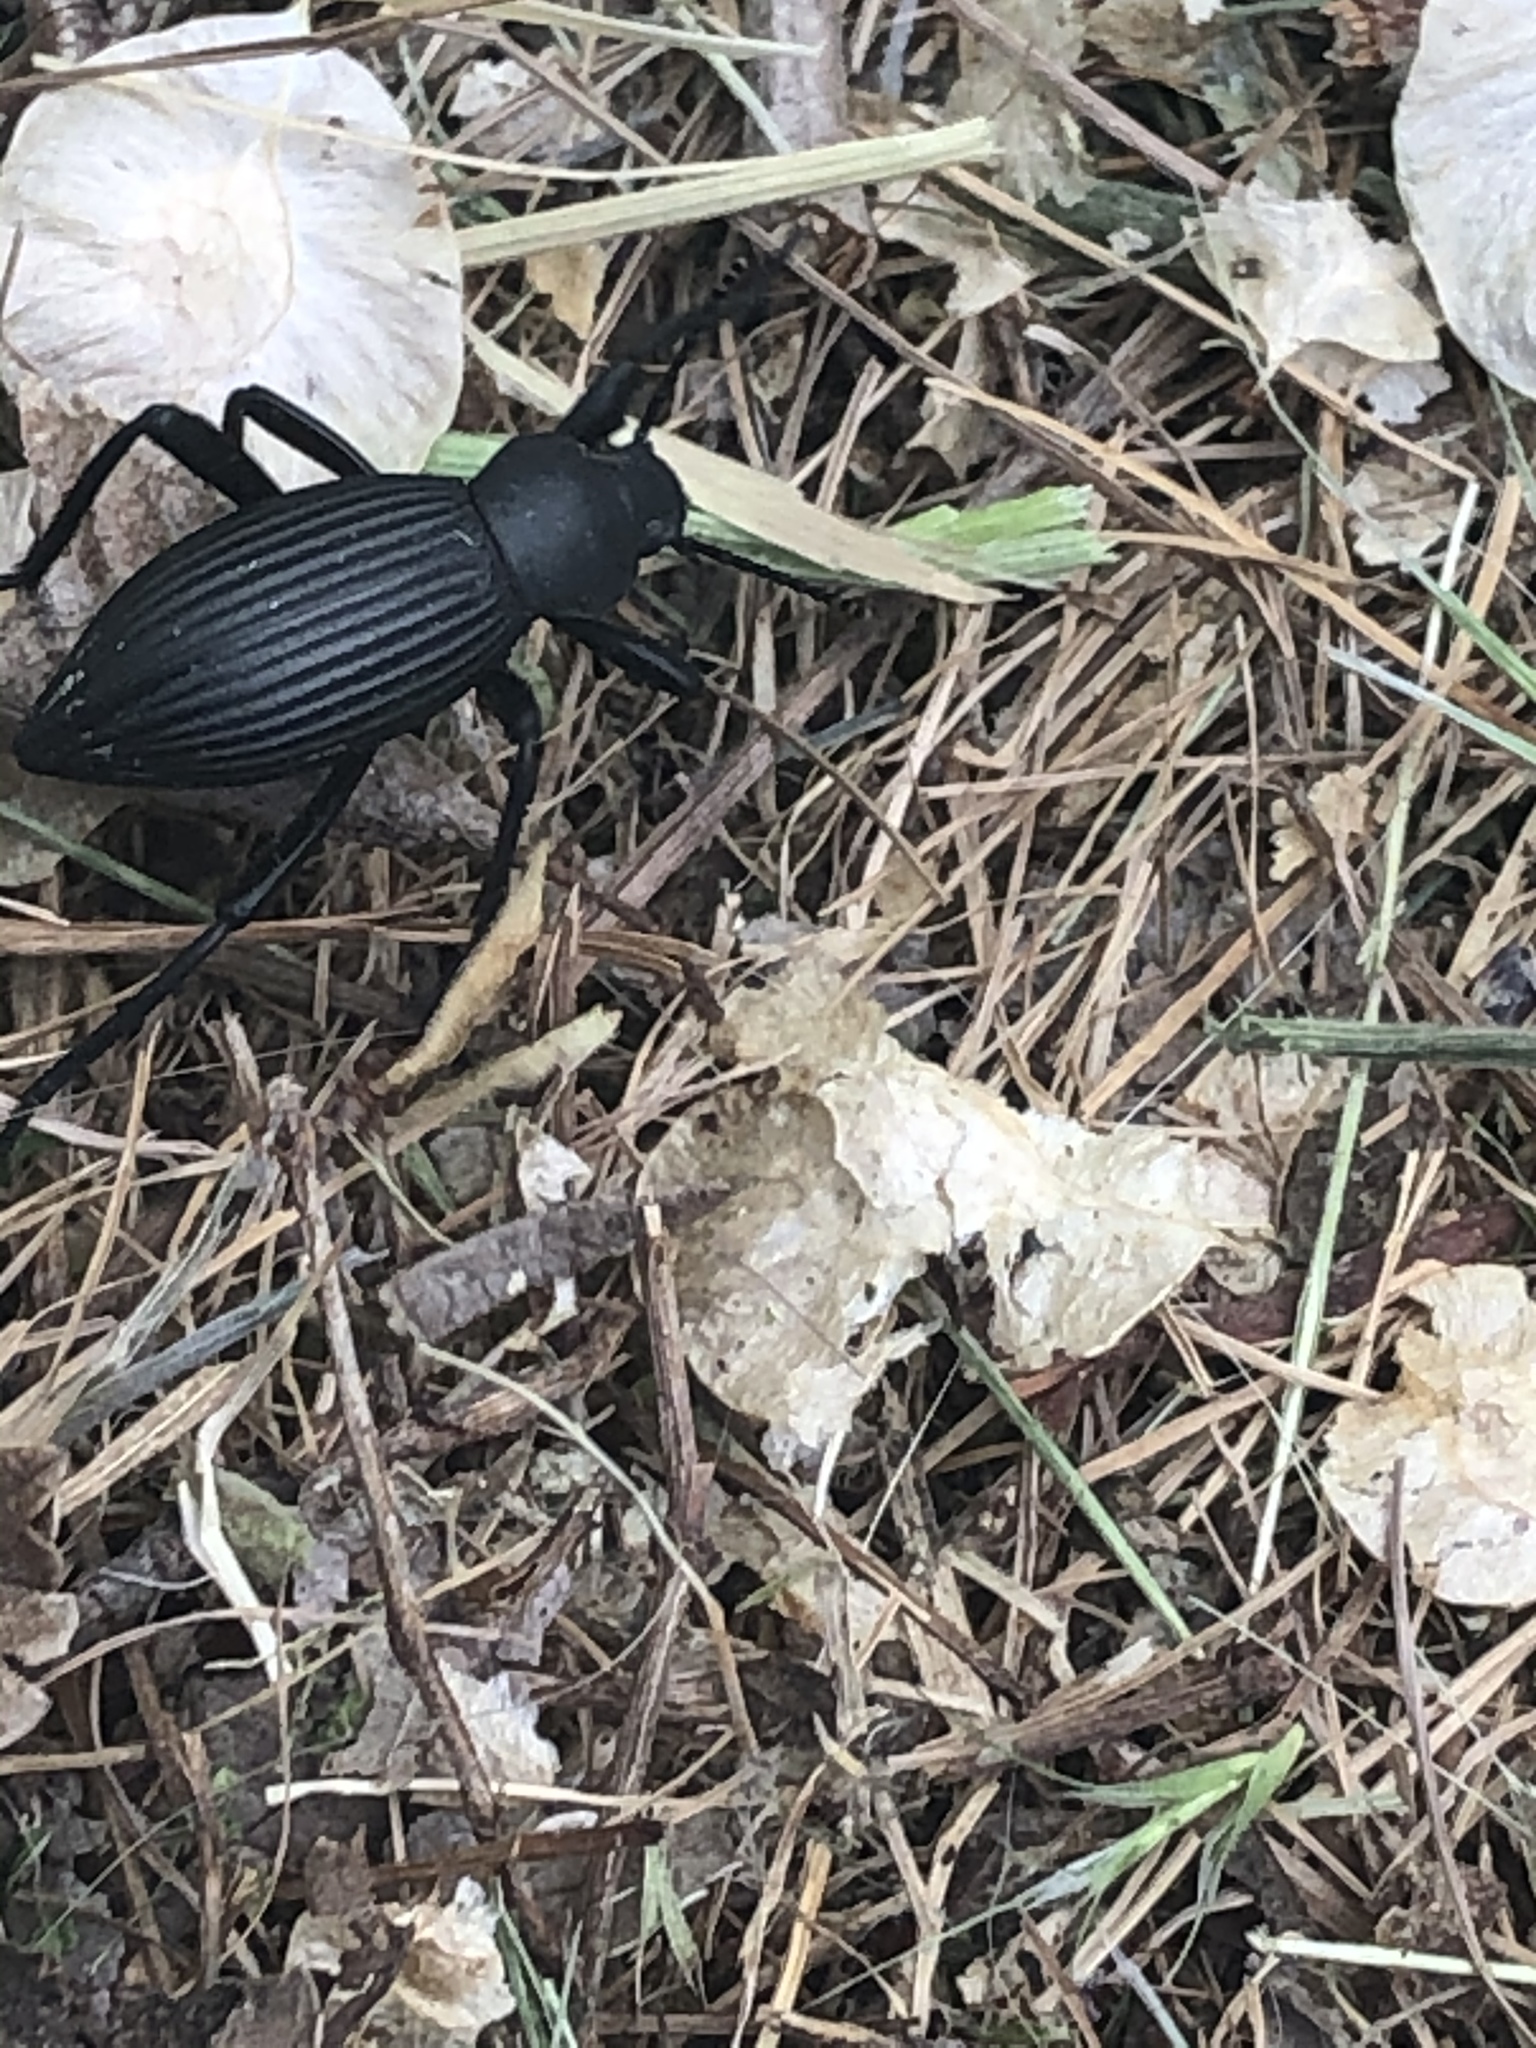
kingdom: Animalia
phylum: Arthropoda
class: Insecta
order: Coleoptera
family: Tenebrionidae
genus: Eleodes
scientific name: Eleodes hispilabris
